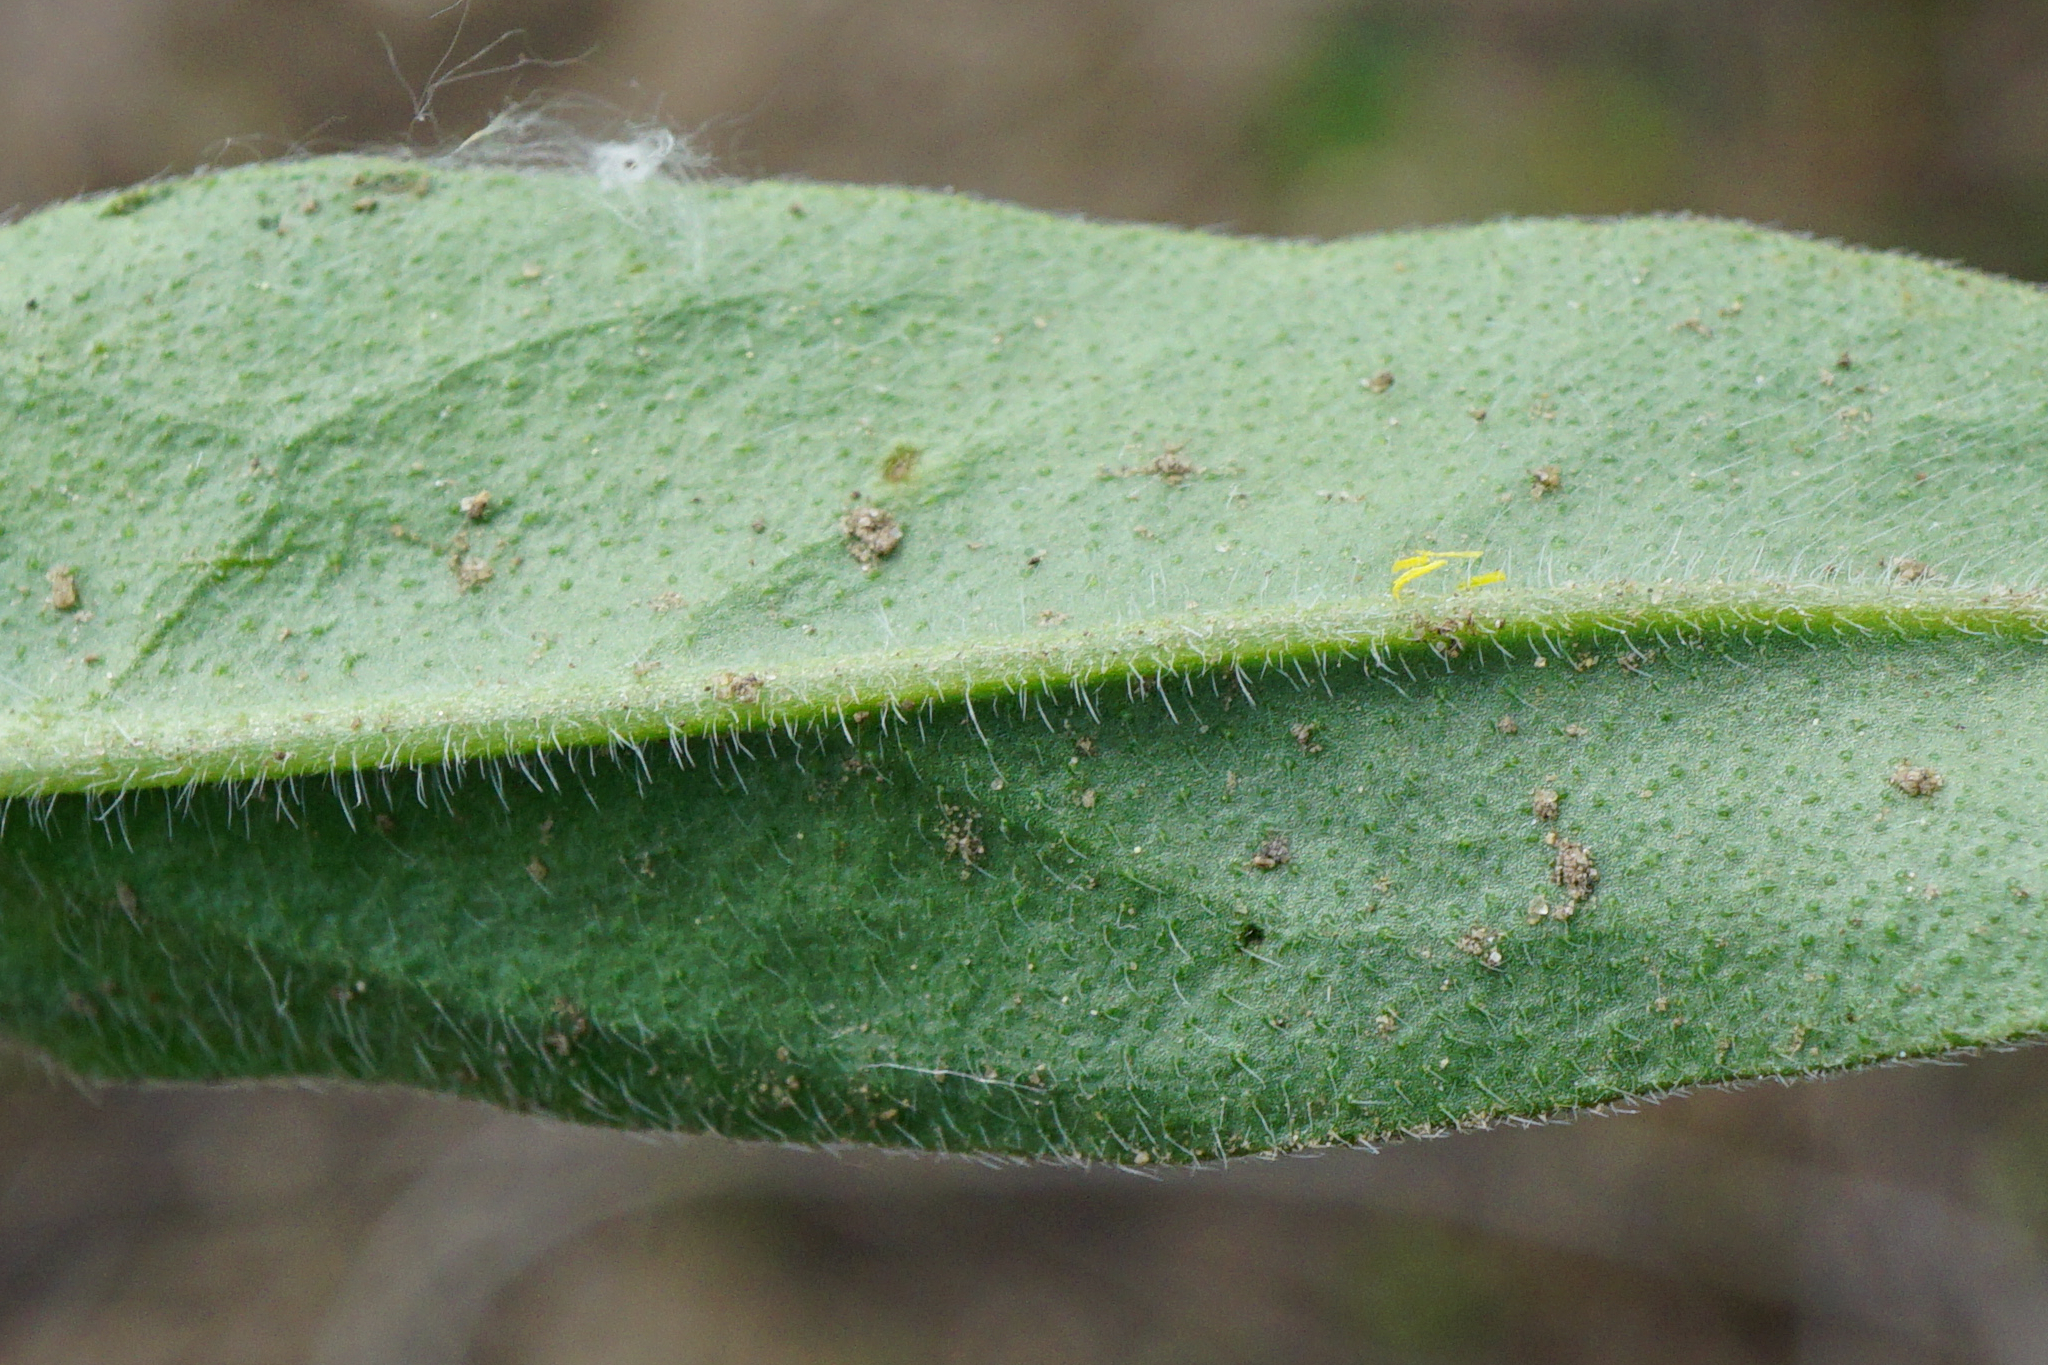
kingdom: Plantae
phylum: Tracheophyta
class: Magnoliopsida
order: Boraginales
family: Boraginaceae
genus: Echium
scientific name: Echium vulgare
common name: Common viper's bugloss
